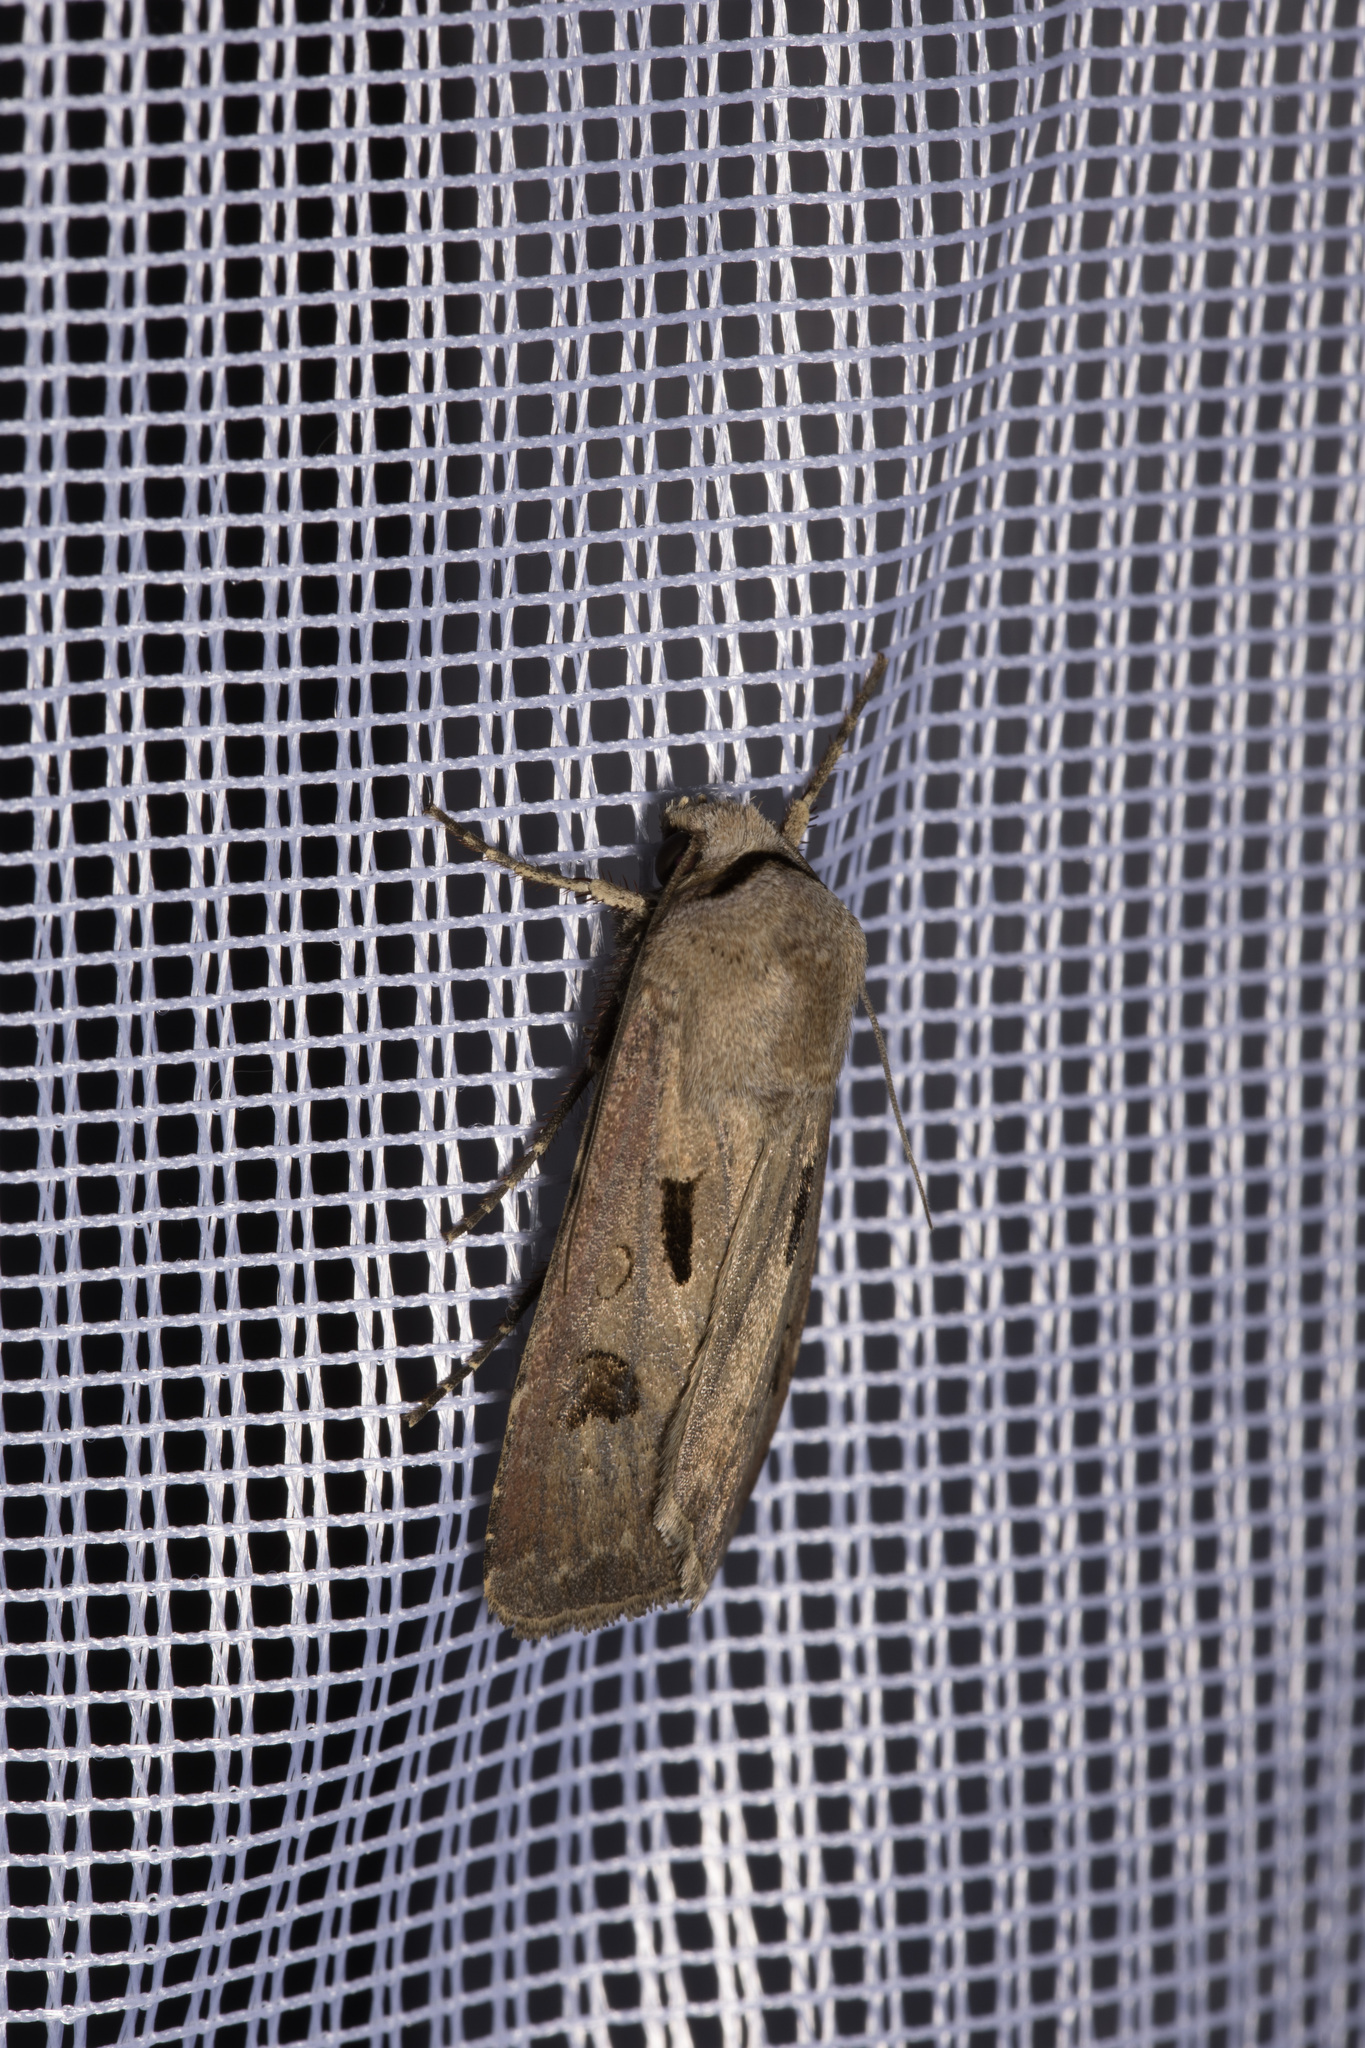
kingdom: Animalia
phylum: Arthropoda
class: Insecta
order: Lepidoptera
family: Noctuidae
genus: Agrotis
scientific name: Agrotis exclamationis
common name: Heart and dart
